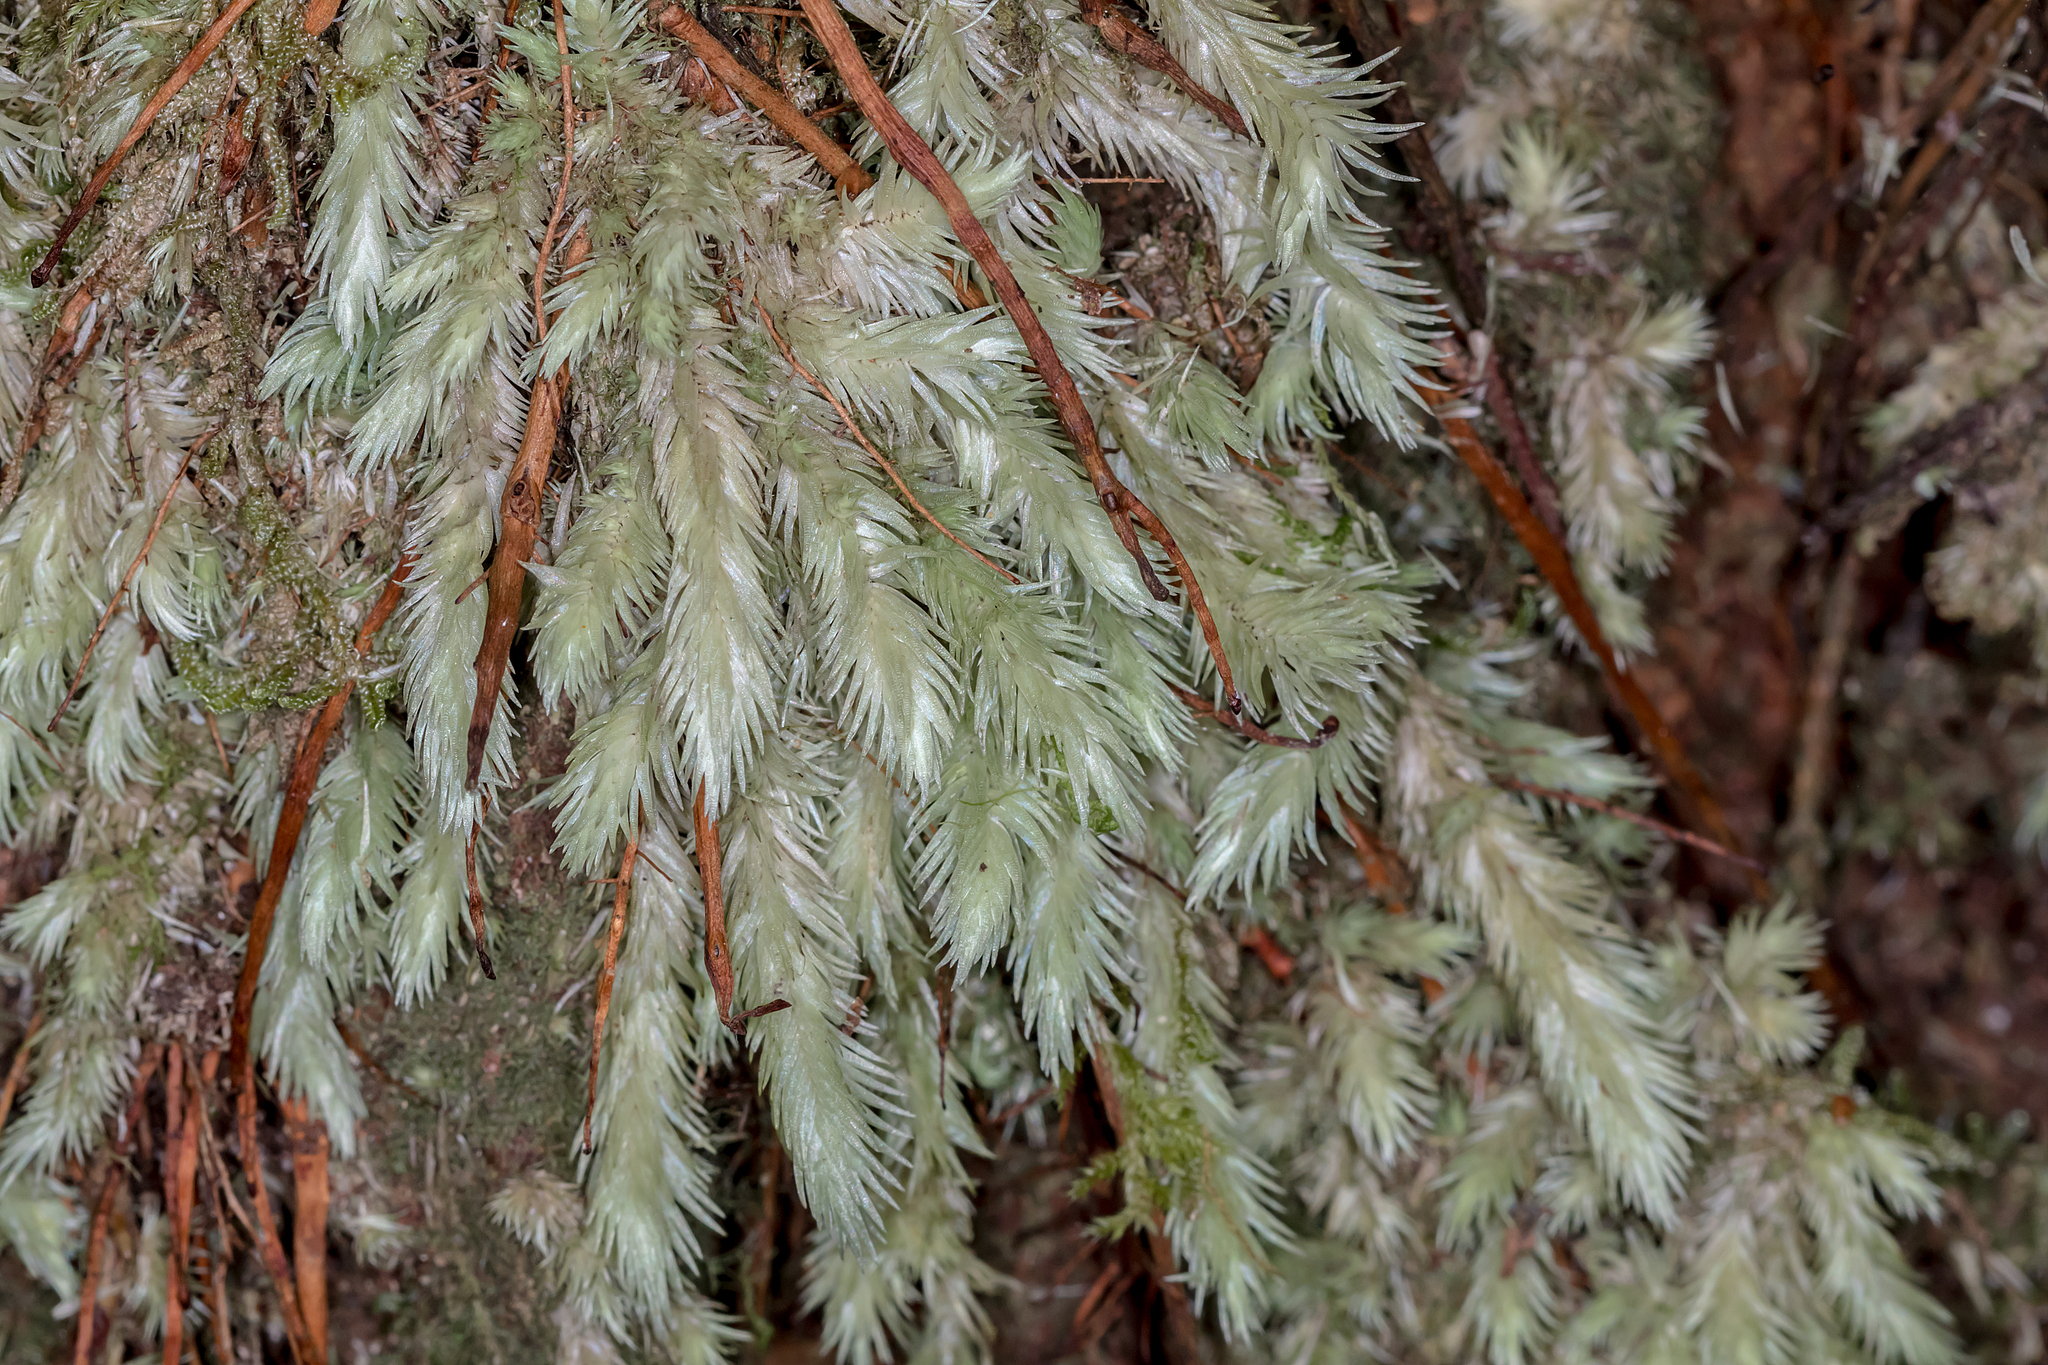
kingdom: Plantae
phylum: Bryophyta
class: Bryopsida
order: Dicranales
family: Leucobryaceae
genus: Leucobryum
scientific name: Leucobryum javense
